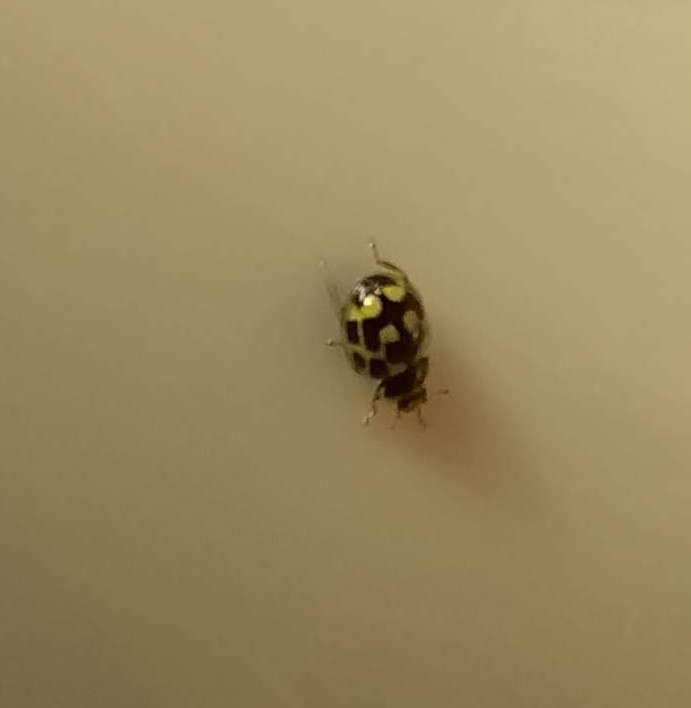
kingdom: Animalia
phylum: Arthropoda
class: Insecta
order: Coleoptera
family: Coccinellidae
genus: Propylaea
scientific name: Propylaea quatuordecimpunctata
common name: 14-spotted ladybird beetle
